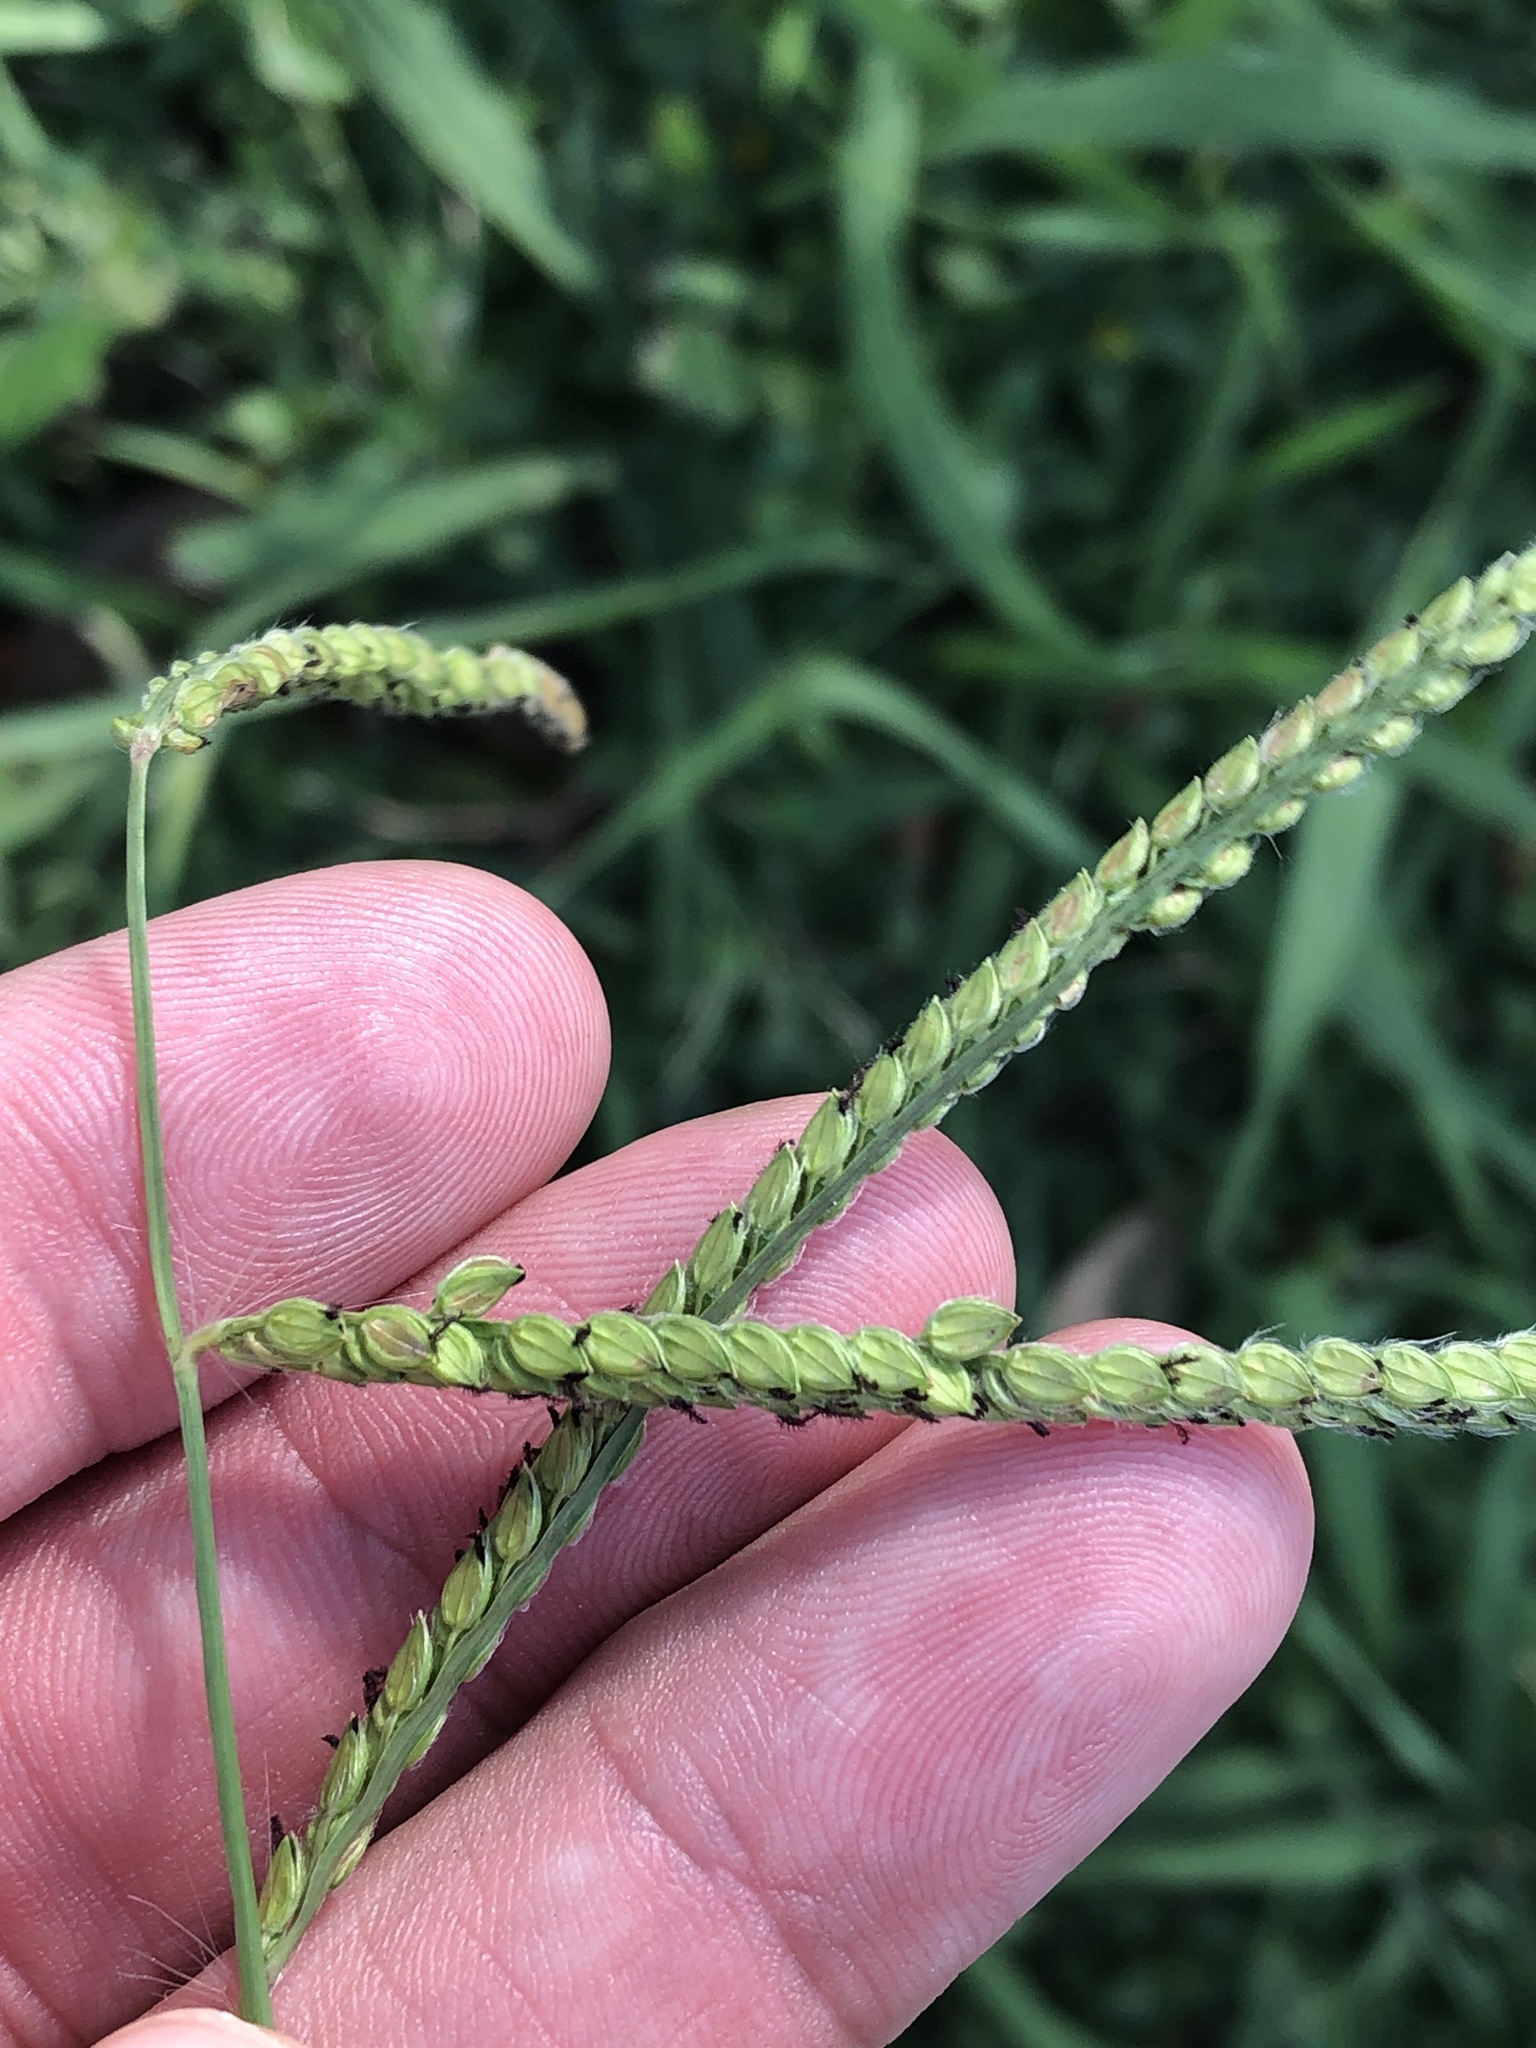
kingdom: Plantae
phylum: Tracheophyta
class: Liliopsida
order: Poales
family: Poaceae
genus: Paspalum
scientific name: Paspalum dilatatum
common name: Dallisgrass
